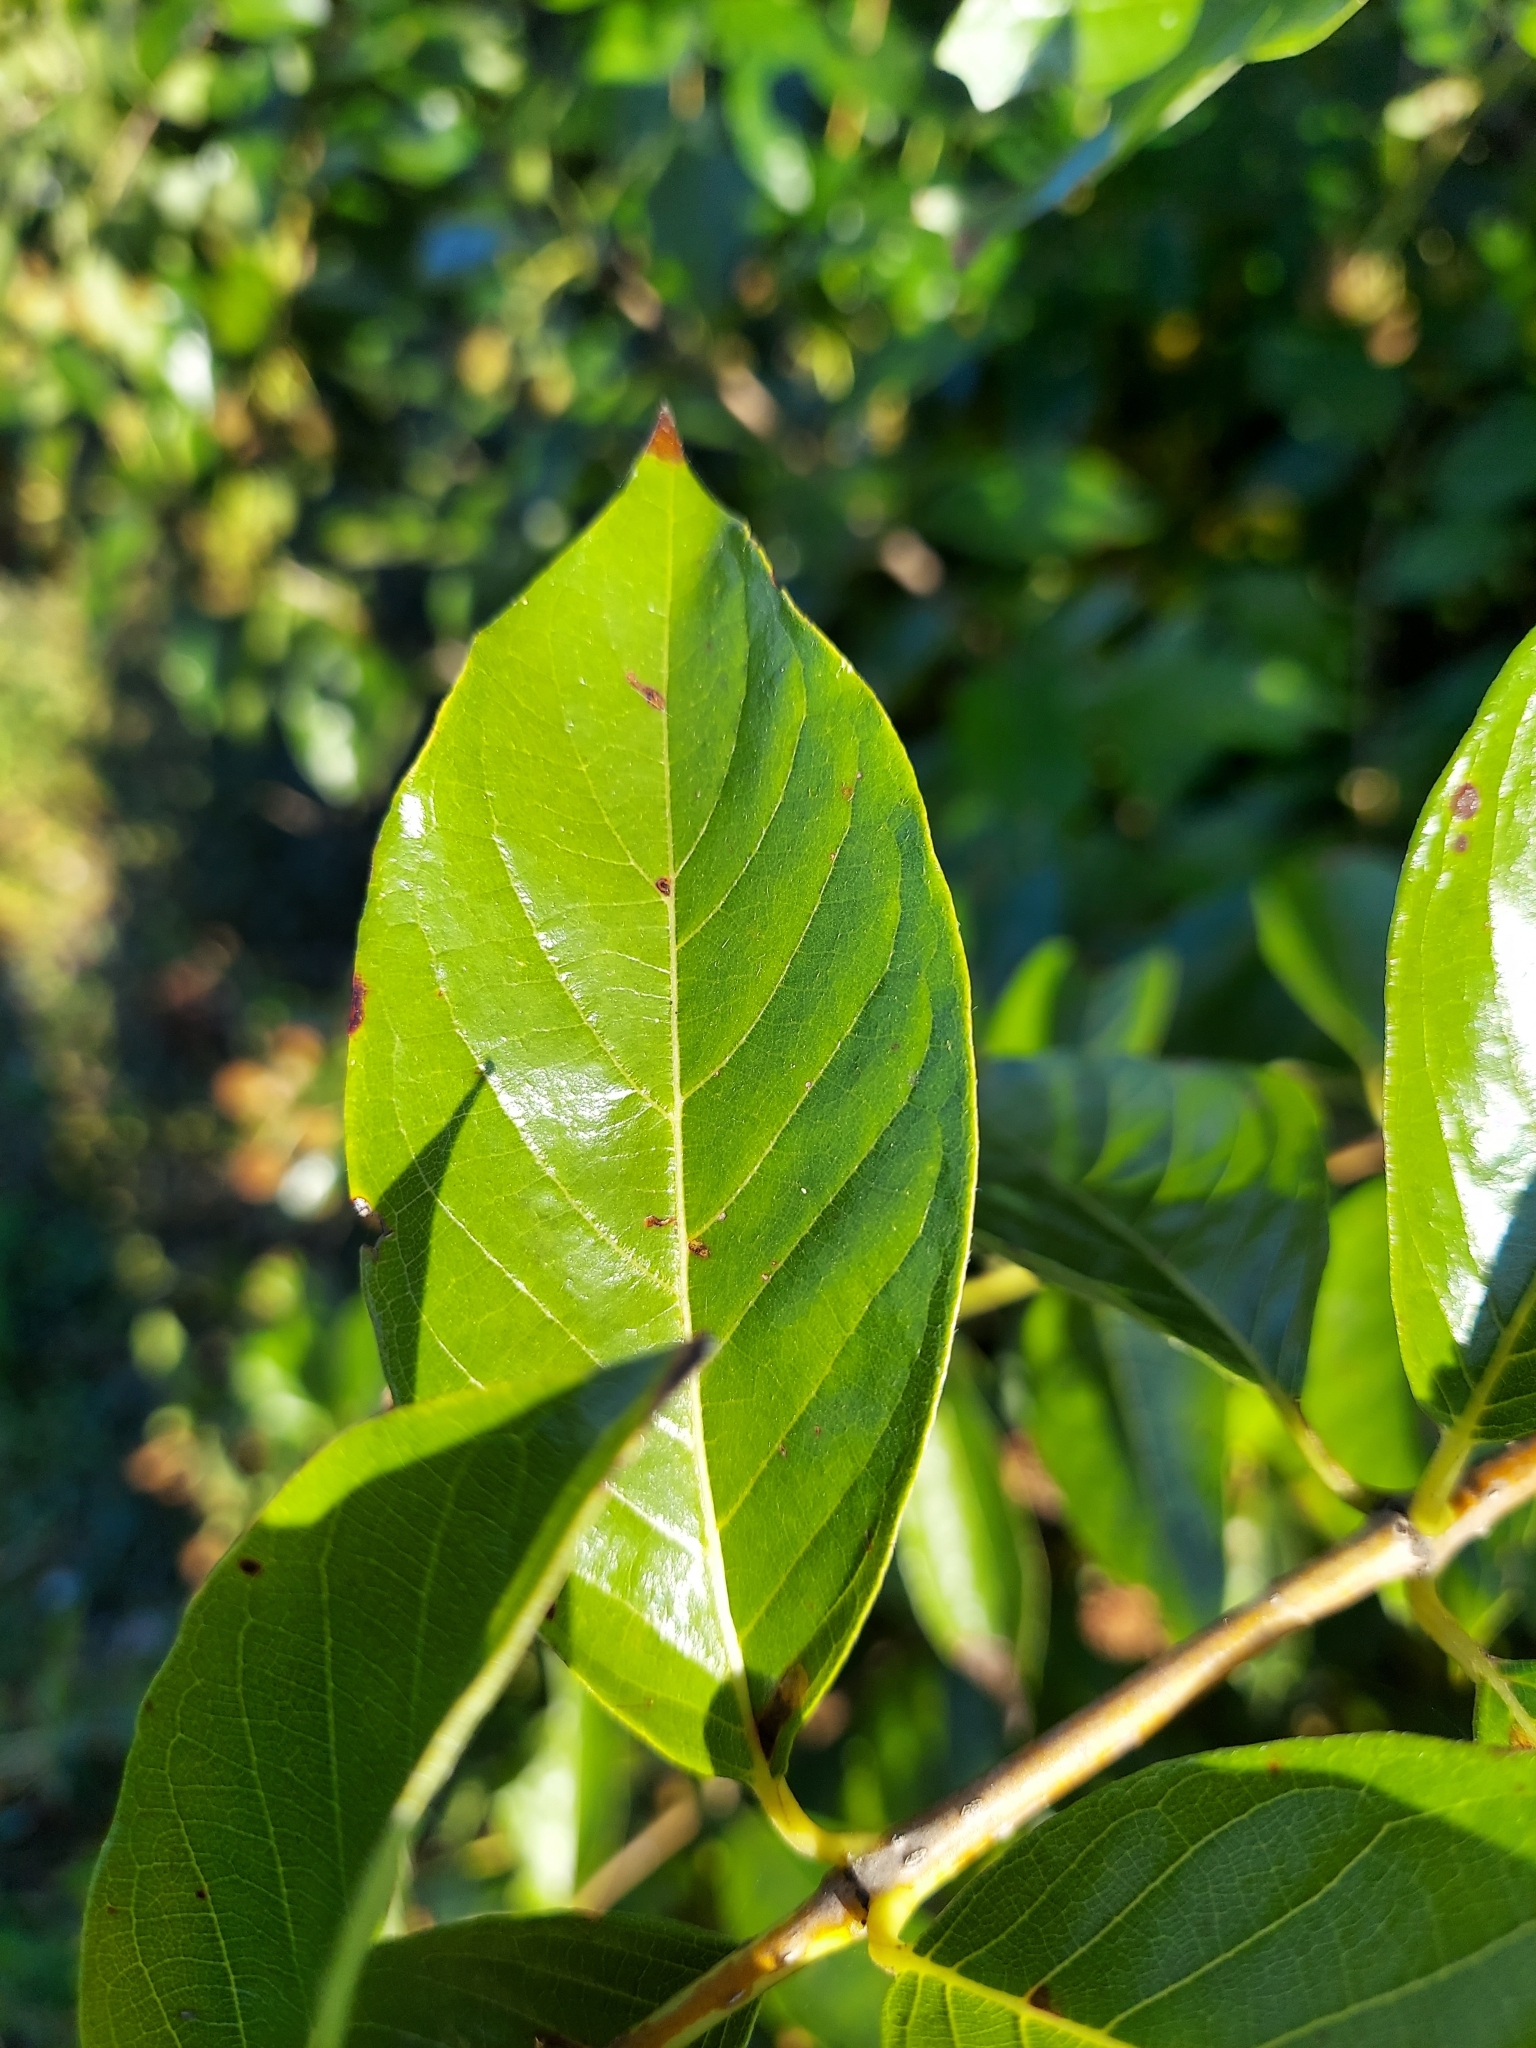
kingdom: Plantae
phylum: Tracheophyta
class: Magnoliopsida
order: Gentianales
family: Rubiaceae
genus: Cephalanthus
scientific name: Cephalanthus occidentalis
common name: Button-willow
